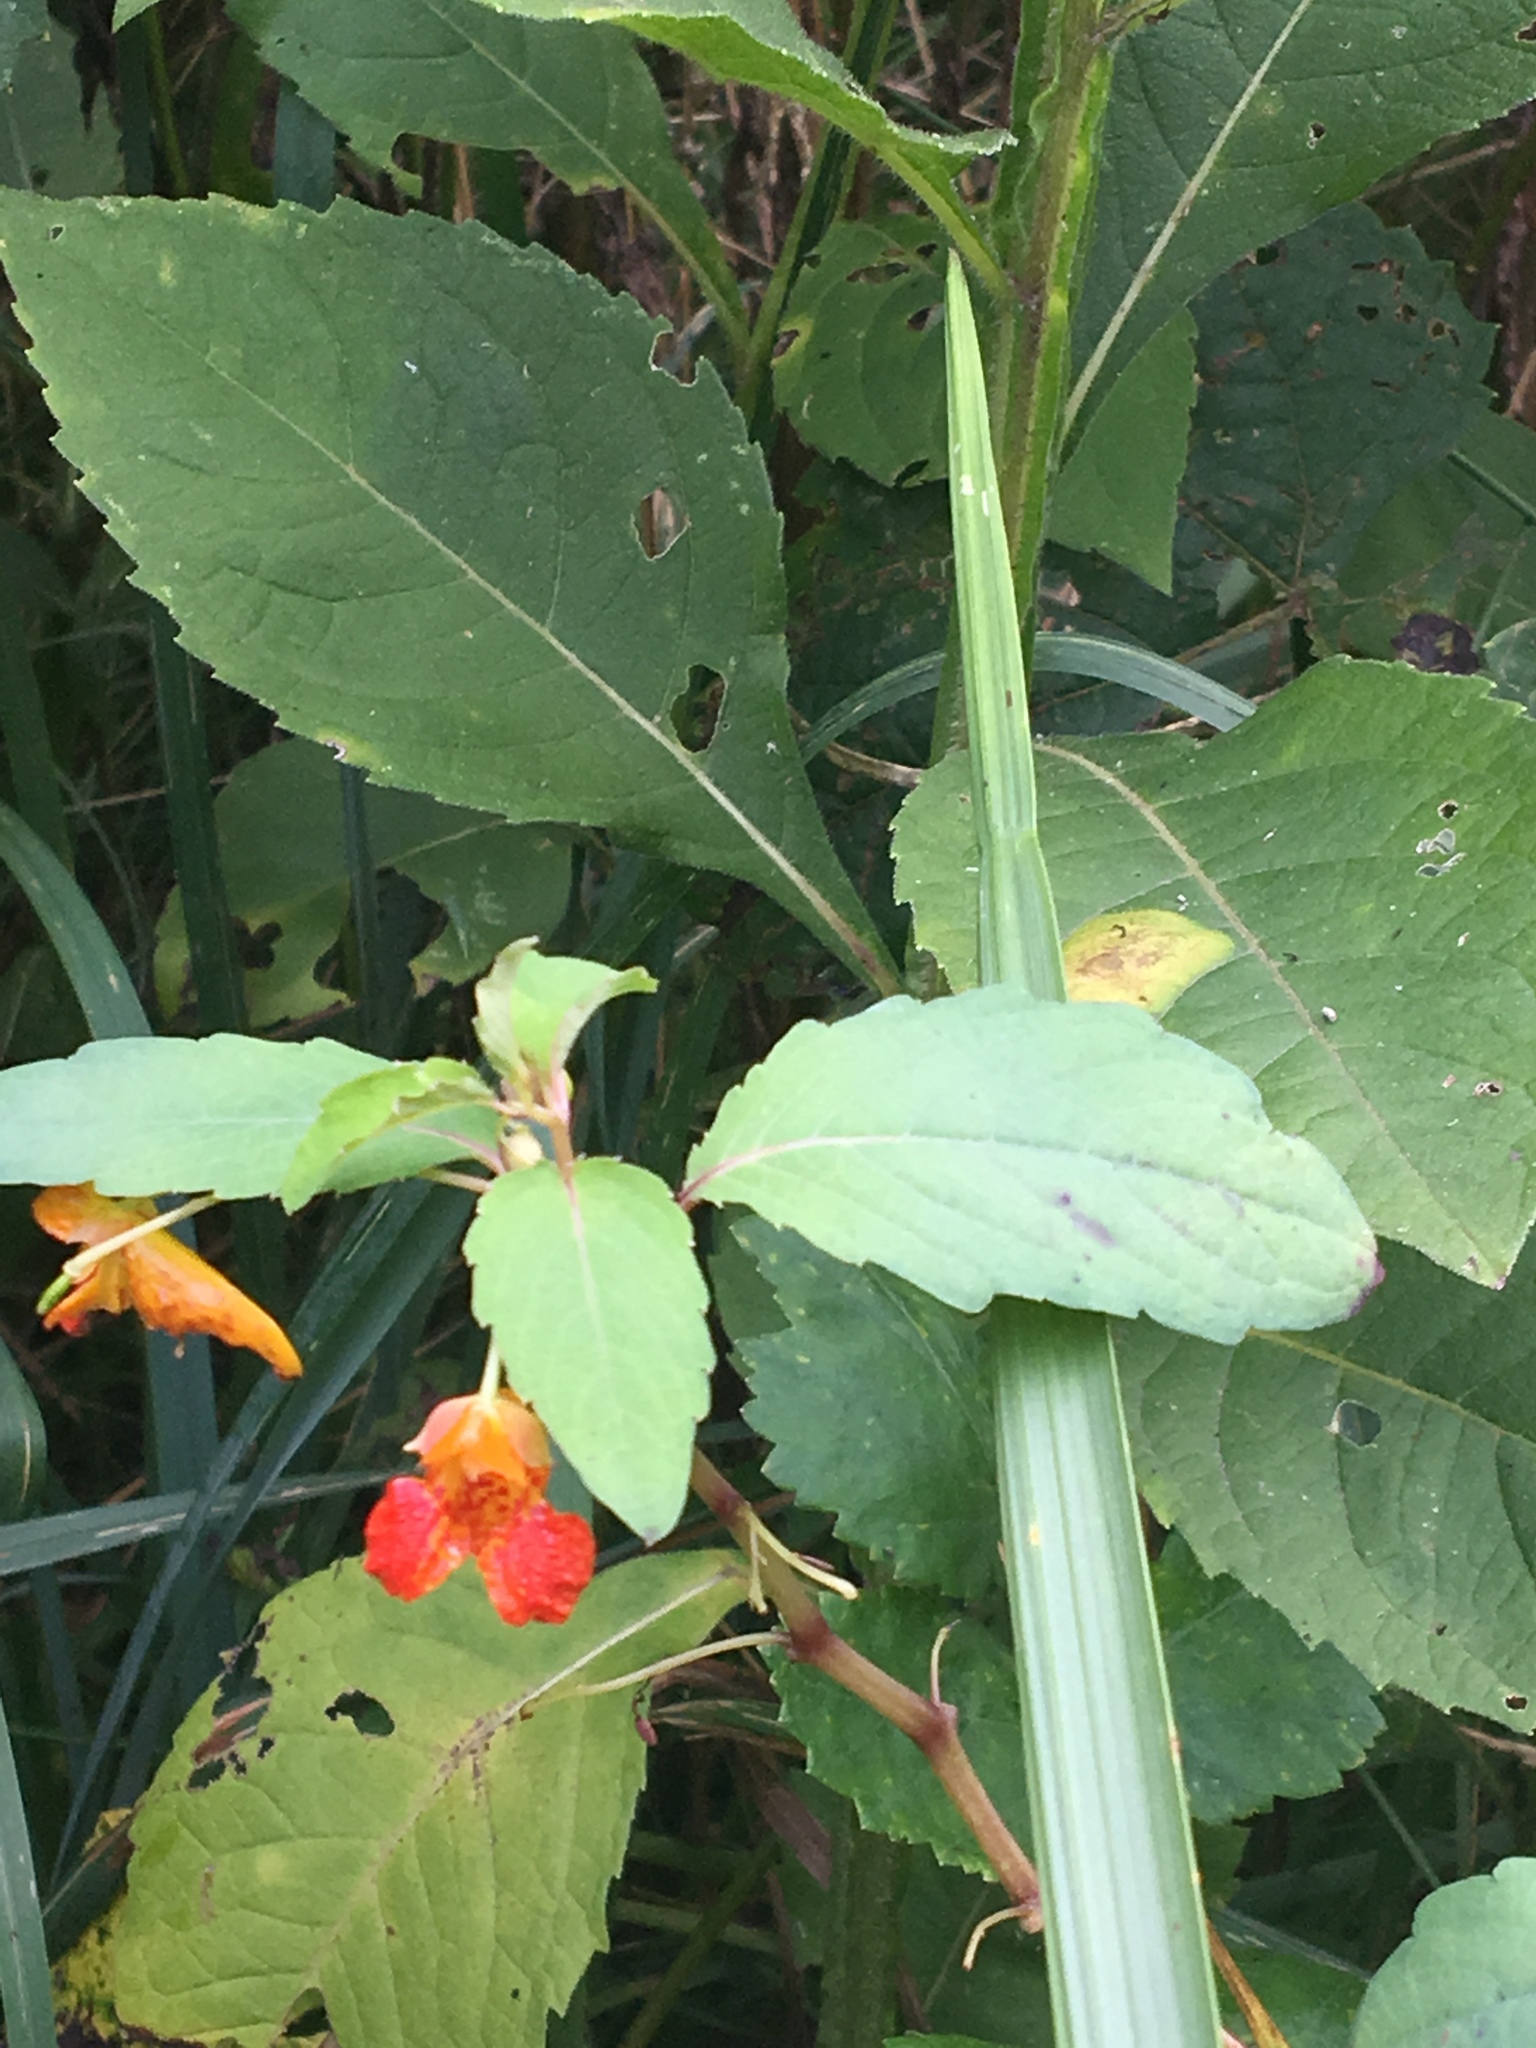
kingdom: Plantae
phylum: Tracheophyta
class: Magnoliopsida
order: Ericales
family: Balsaminaceae
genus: Impatiens
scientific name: Impatiens capensis
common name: Orange balsam
